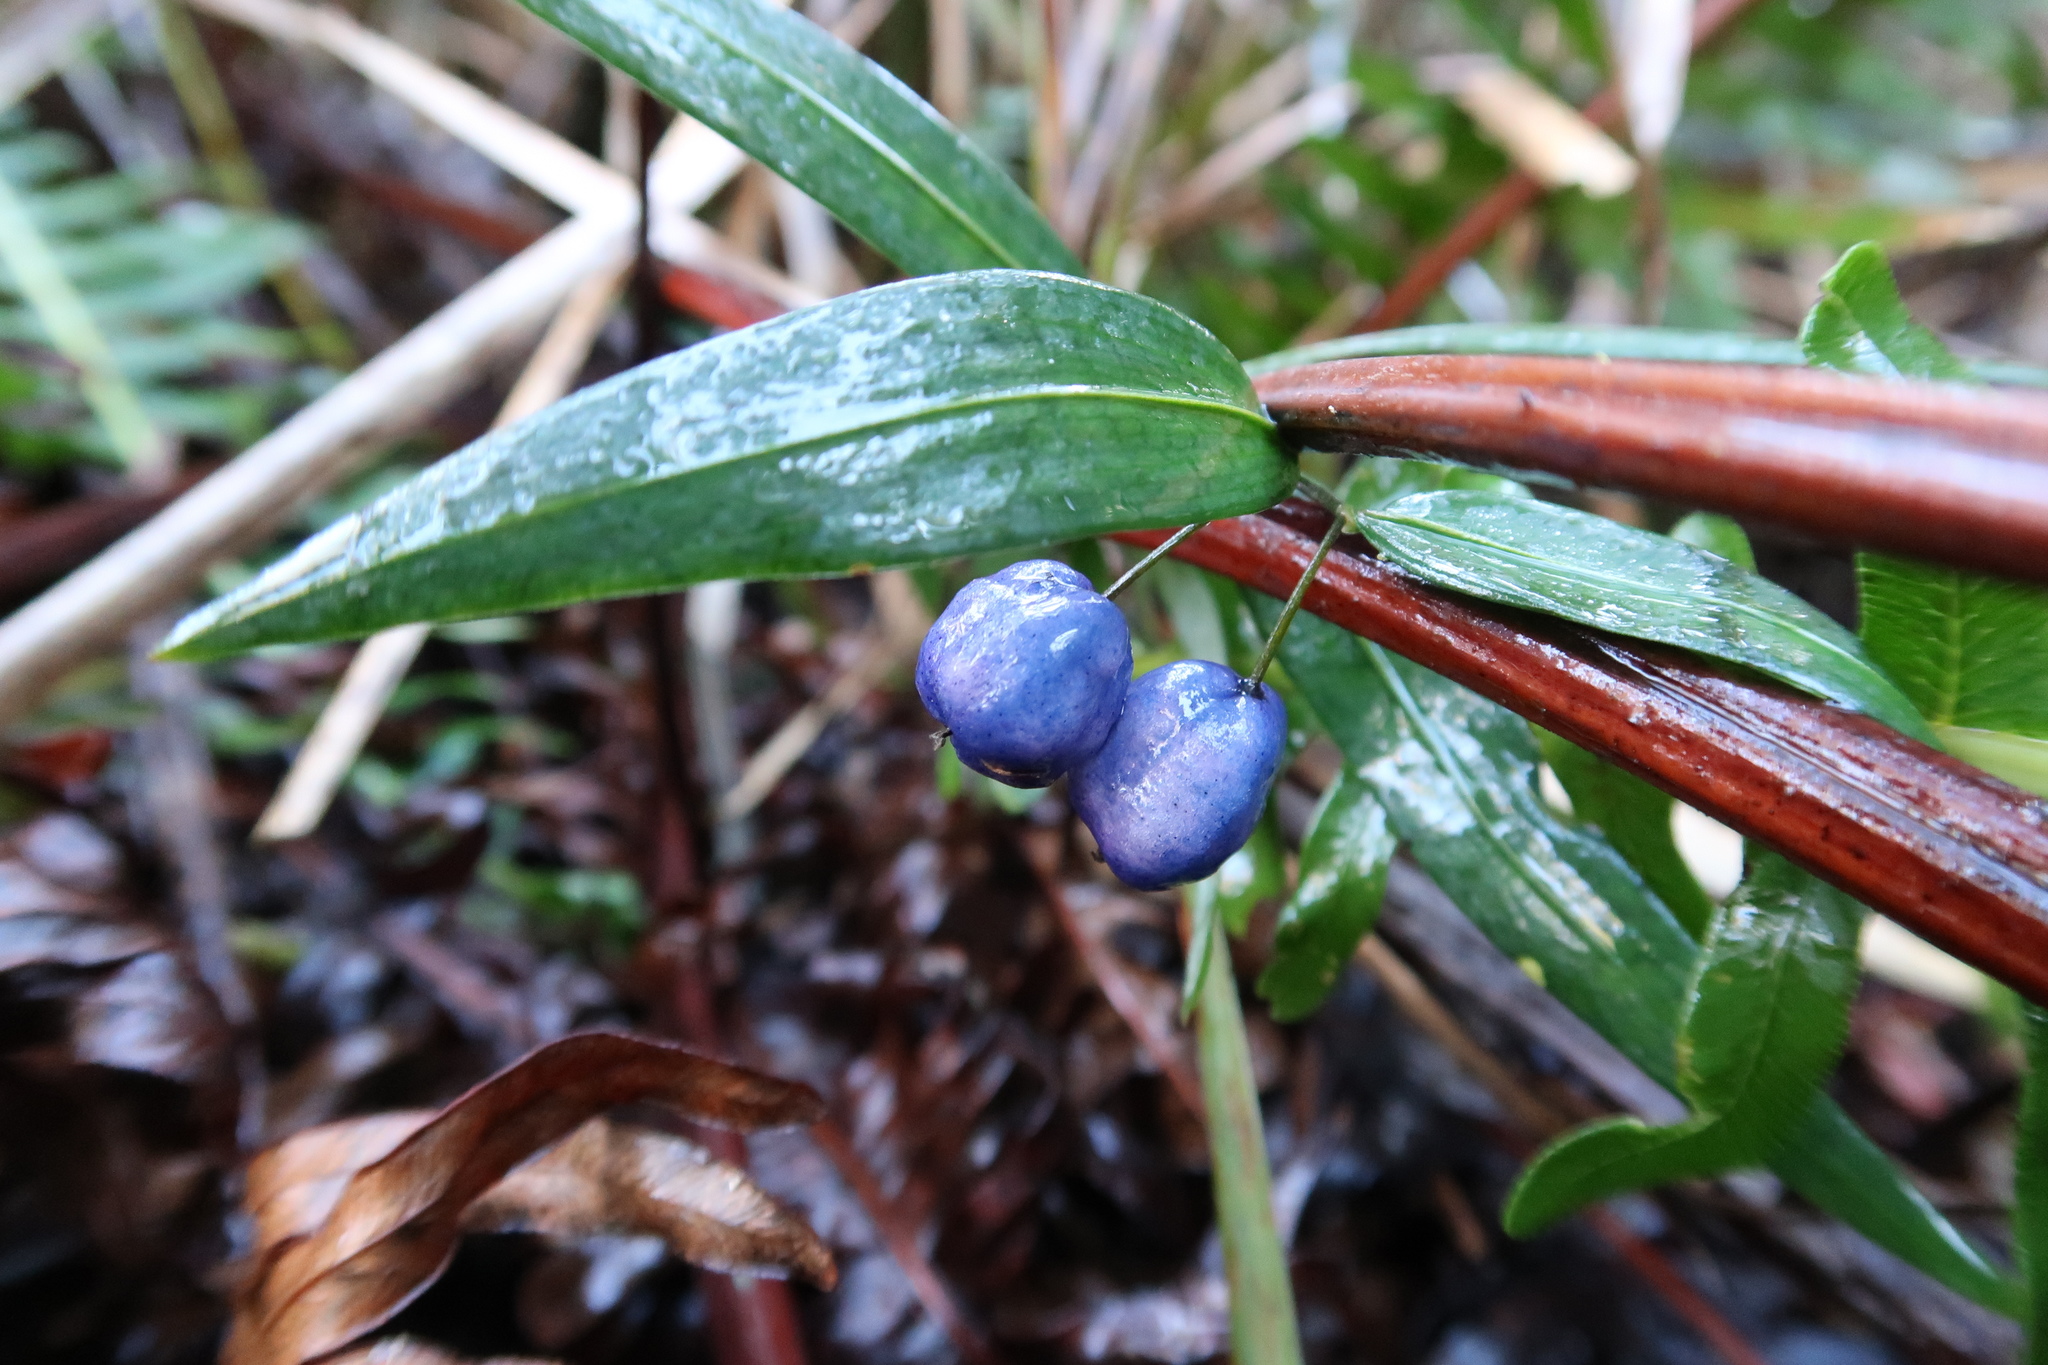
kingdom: Plantae
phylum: Tracheophyta
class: Liliopsida
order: Liliales
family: Alstroemeriaceae
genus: Drymophila
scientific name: Drymophila cyanocarpa
